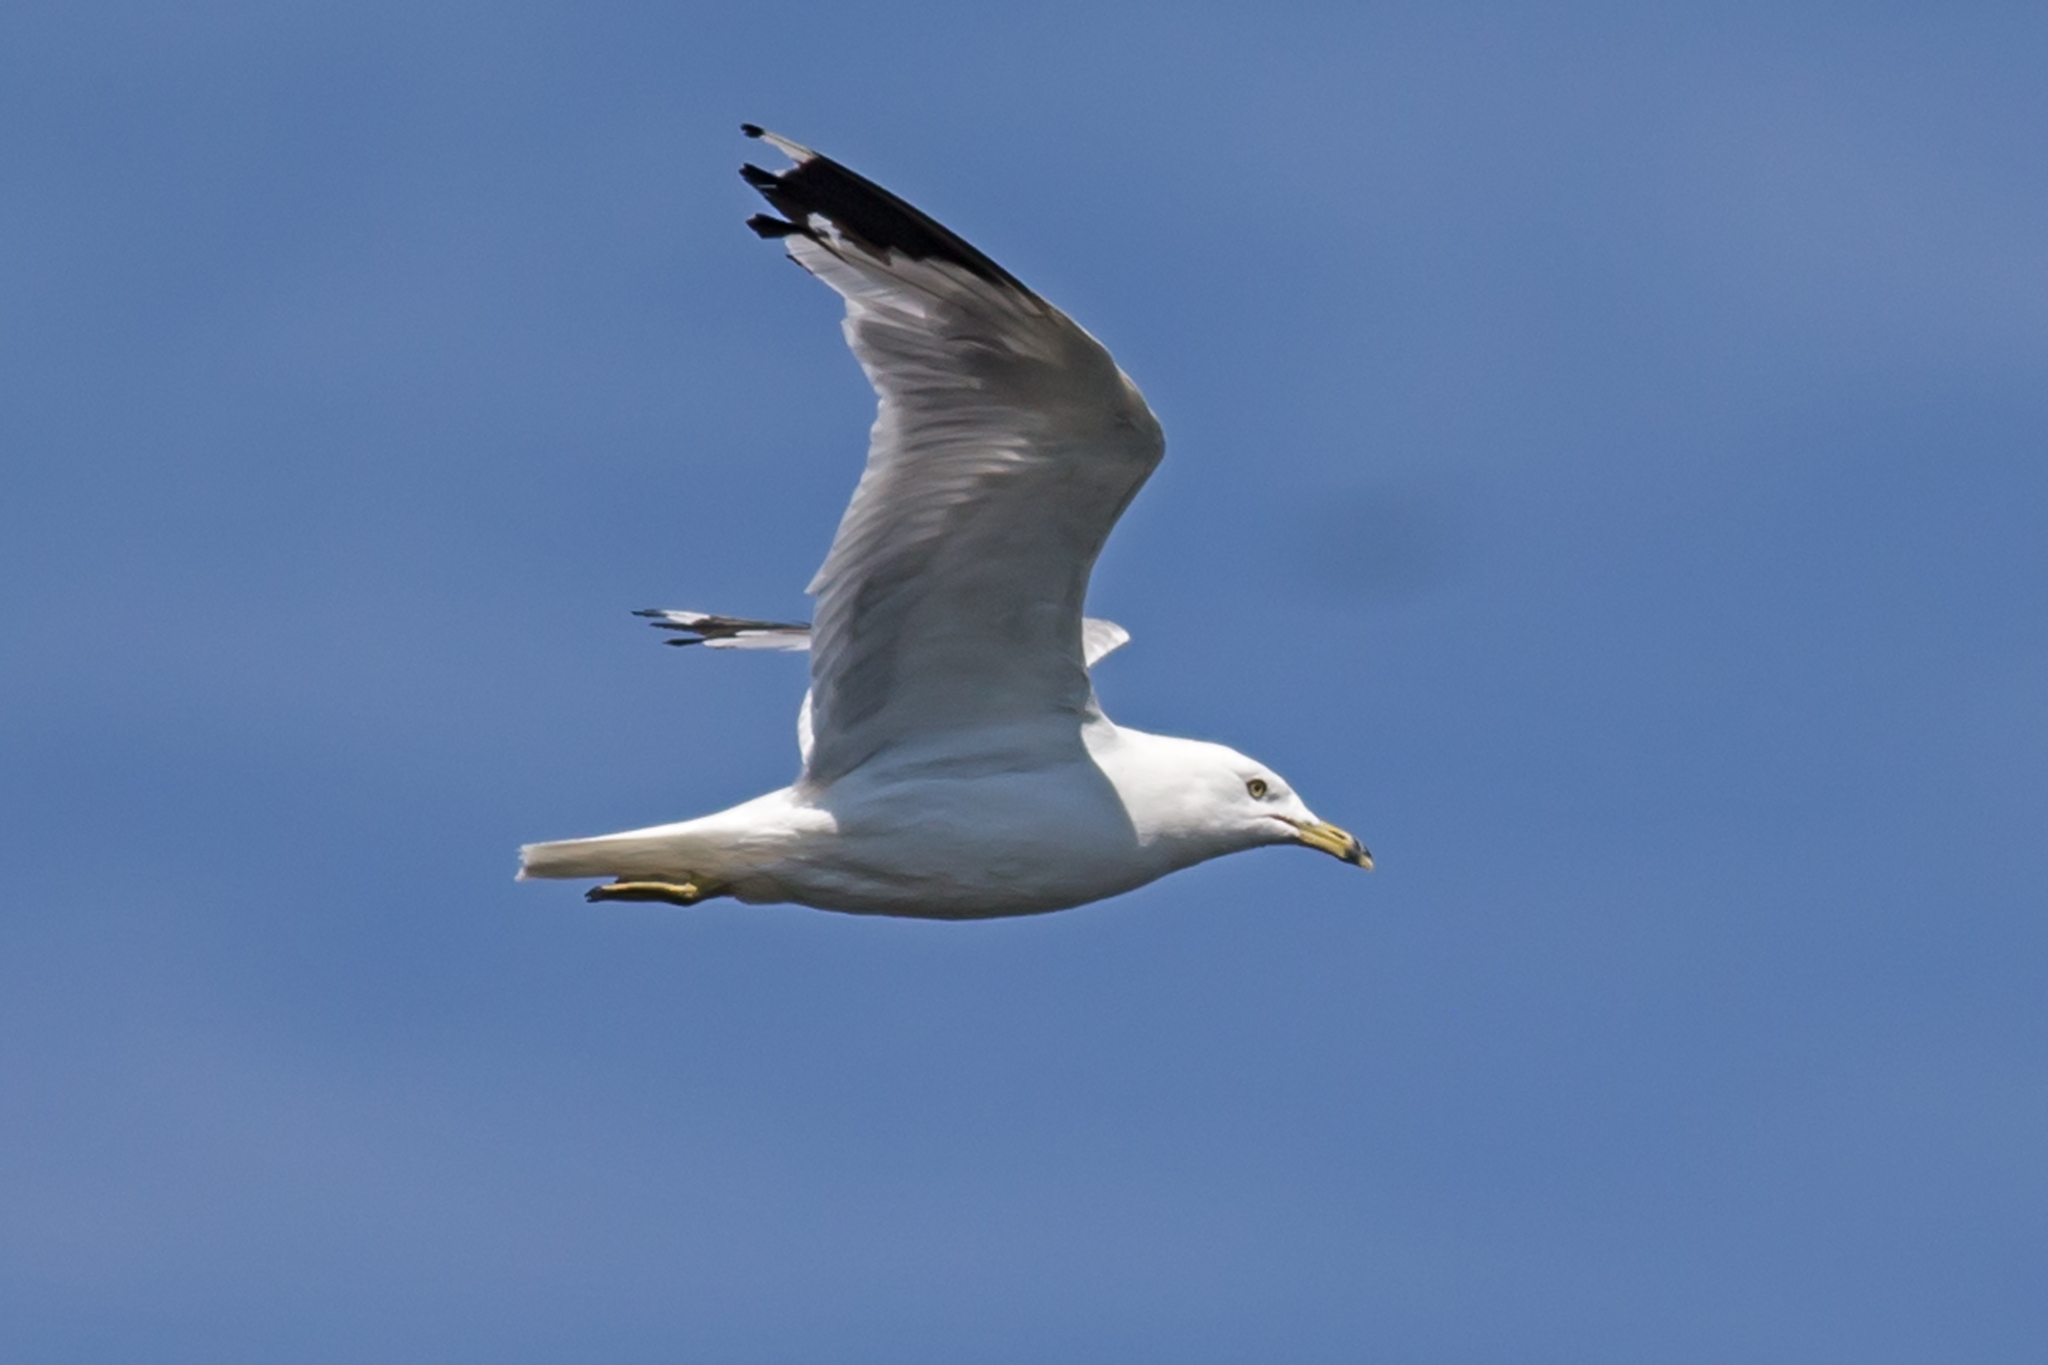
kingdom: Animalia
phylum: Chordata
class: Aves
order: Charadriiformes
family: Laridae
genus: Larus
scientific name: Larus delawarensis
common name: Ring-billed gull
